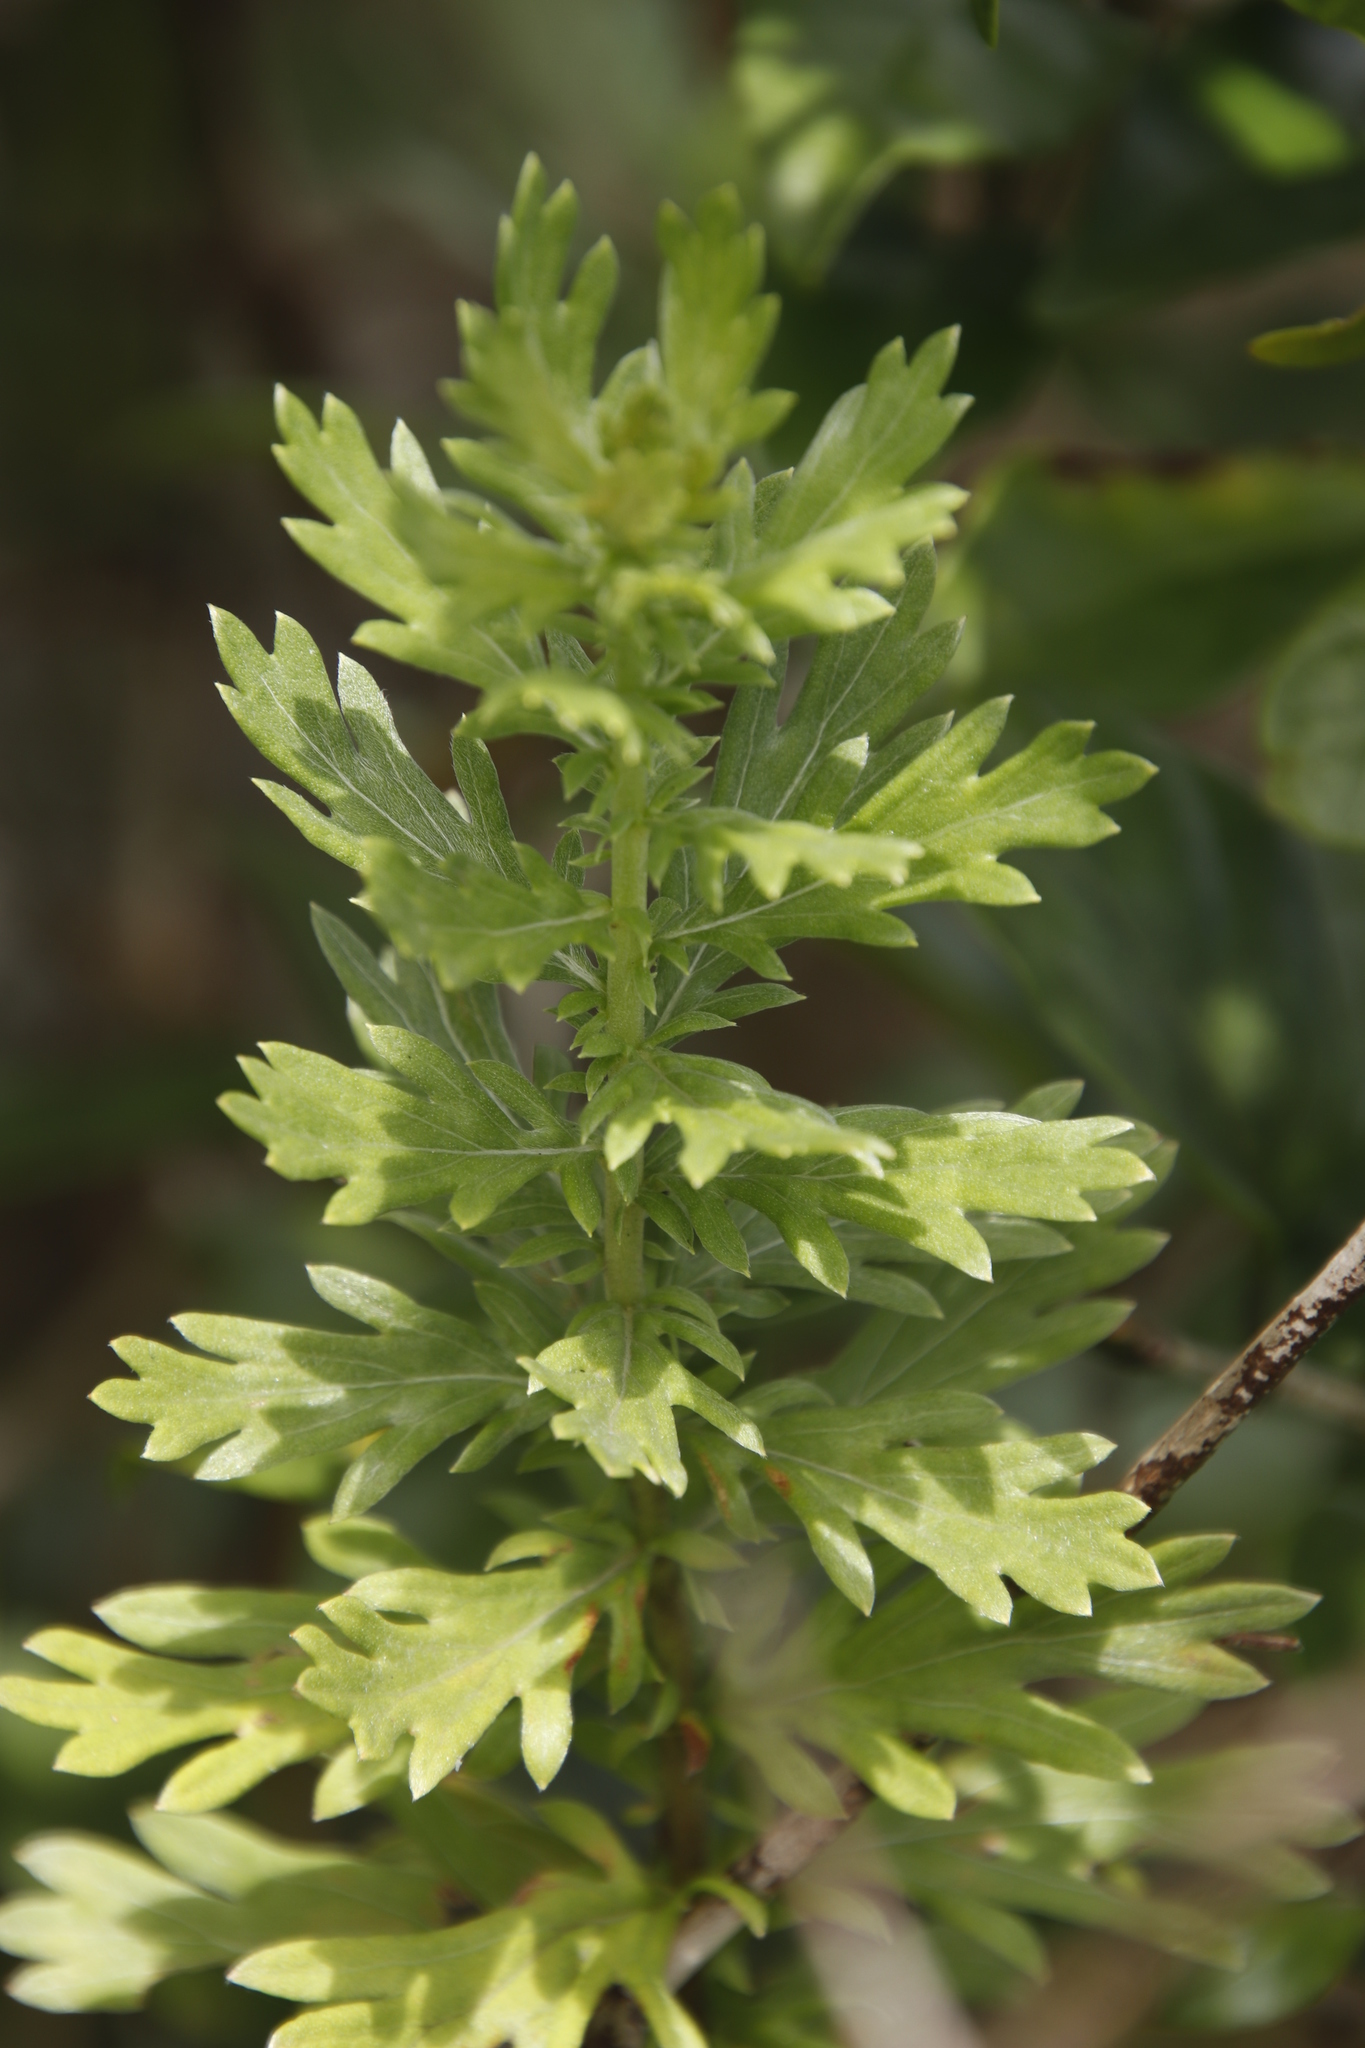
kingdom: Plantae
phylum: Tracheophyta
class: Magnoliopsida
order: Asterales
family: Asteraceae
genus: Schistostephium
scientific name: Schistostephium crataegifolium
